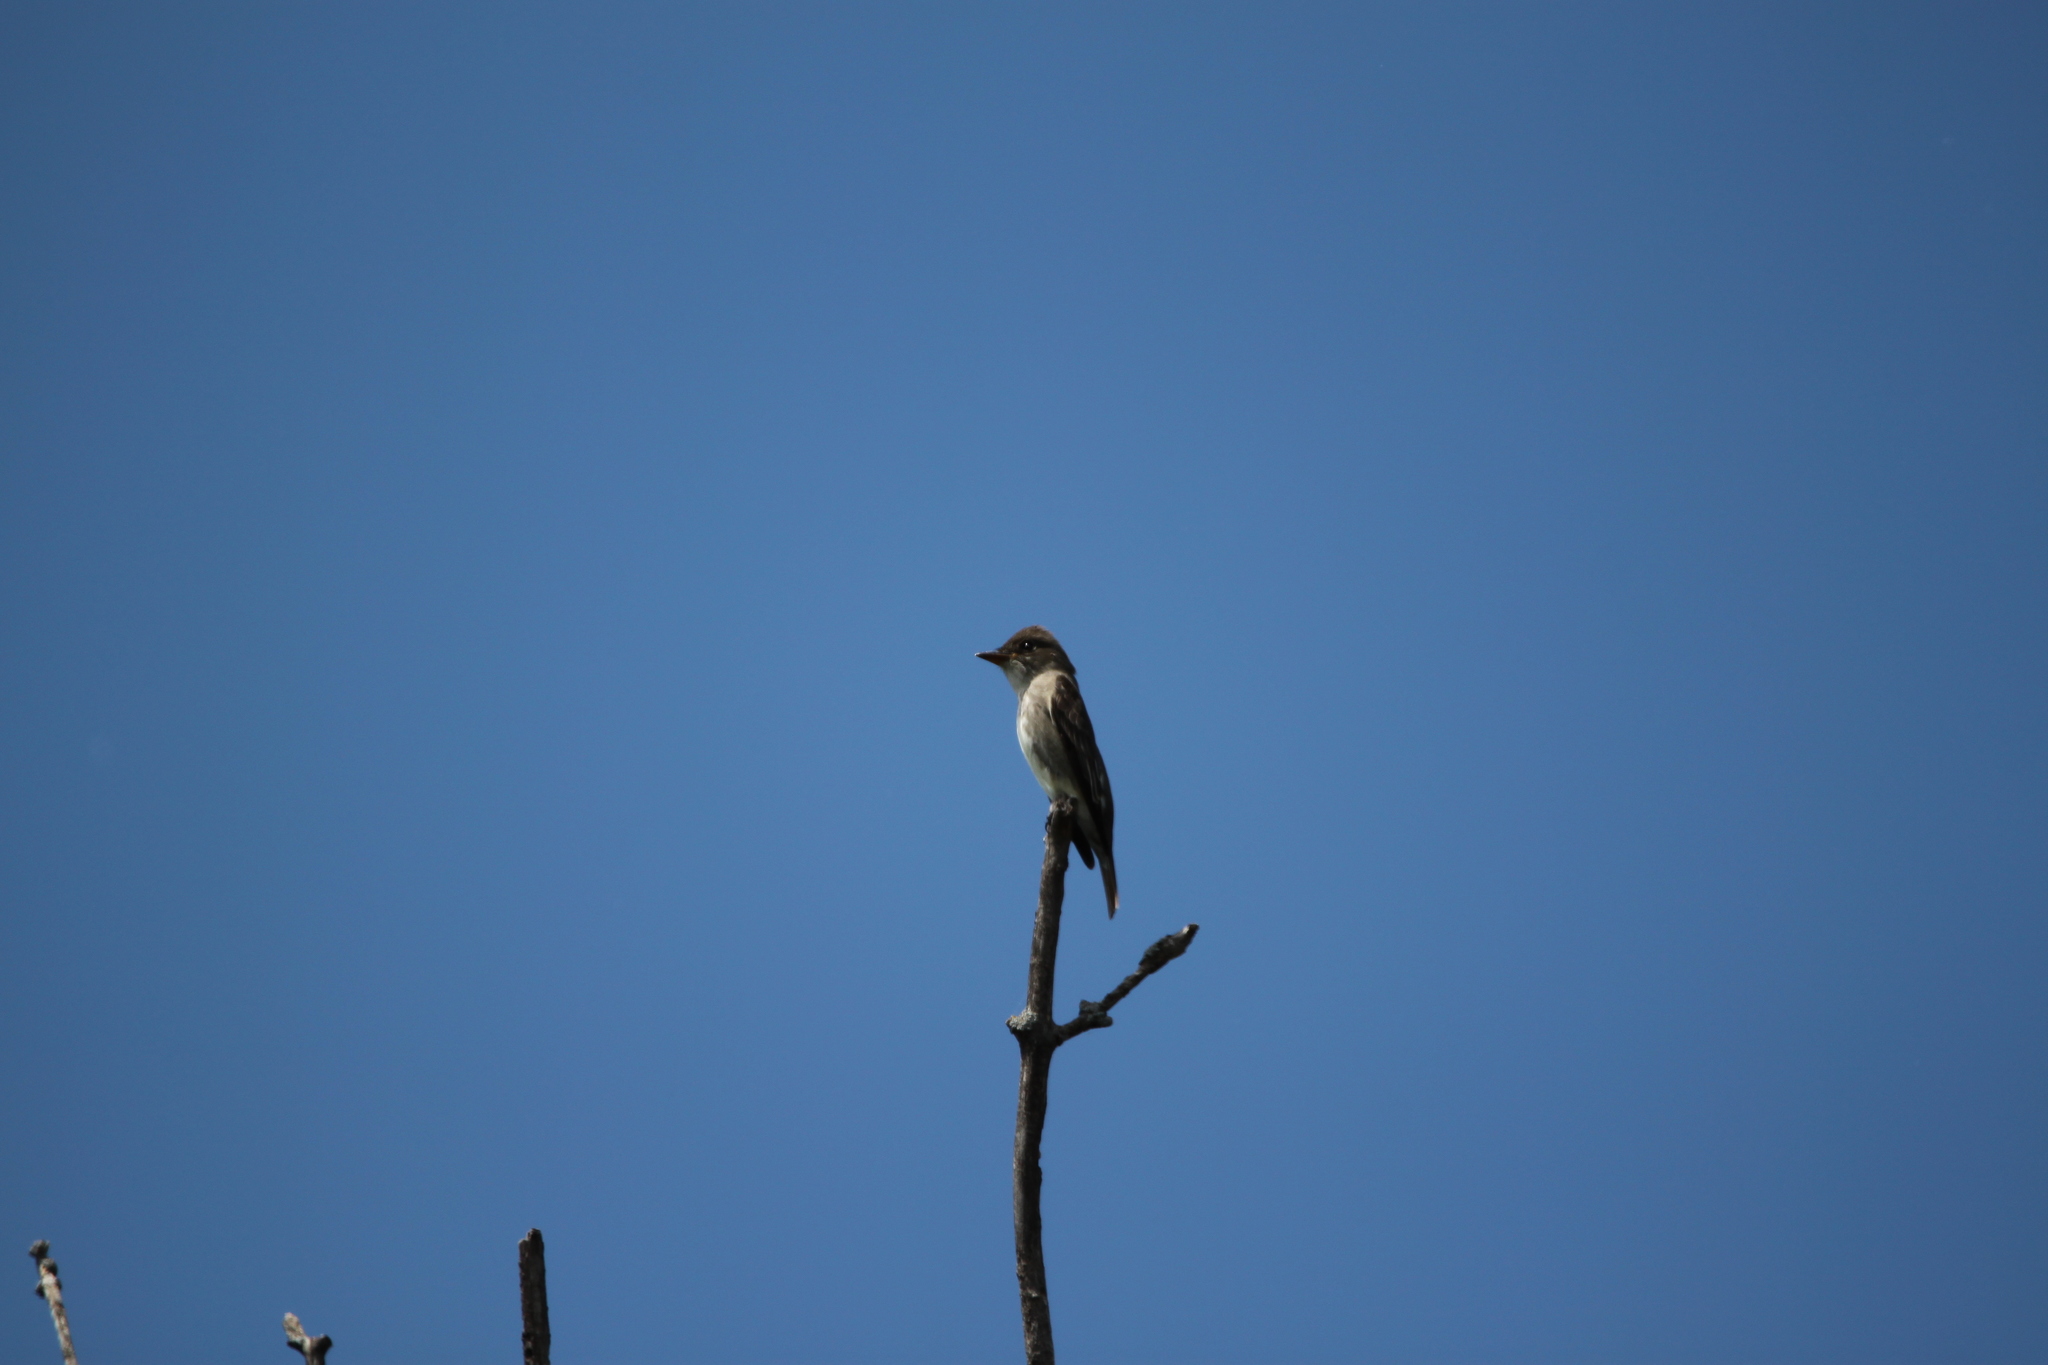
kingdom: Animalia
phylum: Chordata
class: Aves
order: Passeriformes
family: Tyrannidae
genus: Contopus
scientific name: Contopus cooperi
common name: Olive-sided flycatcher
